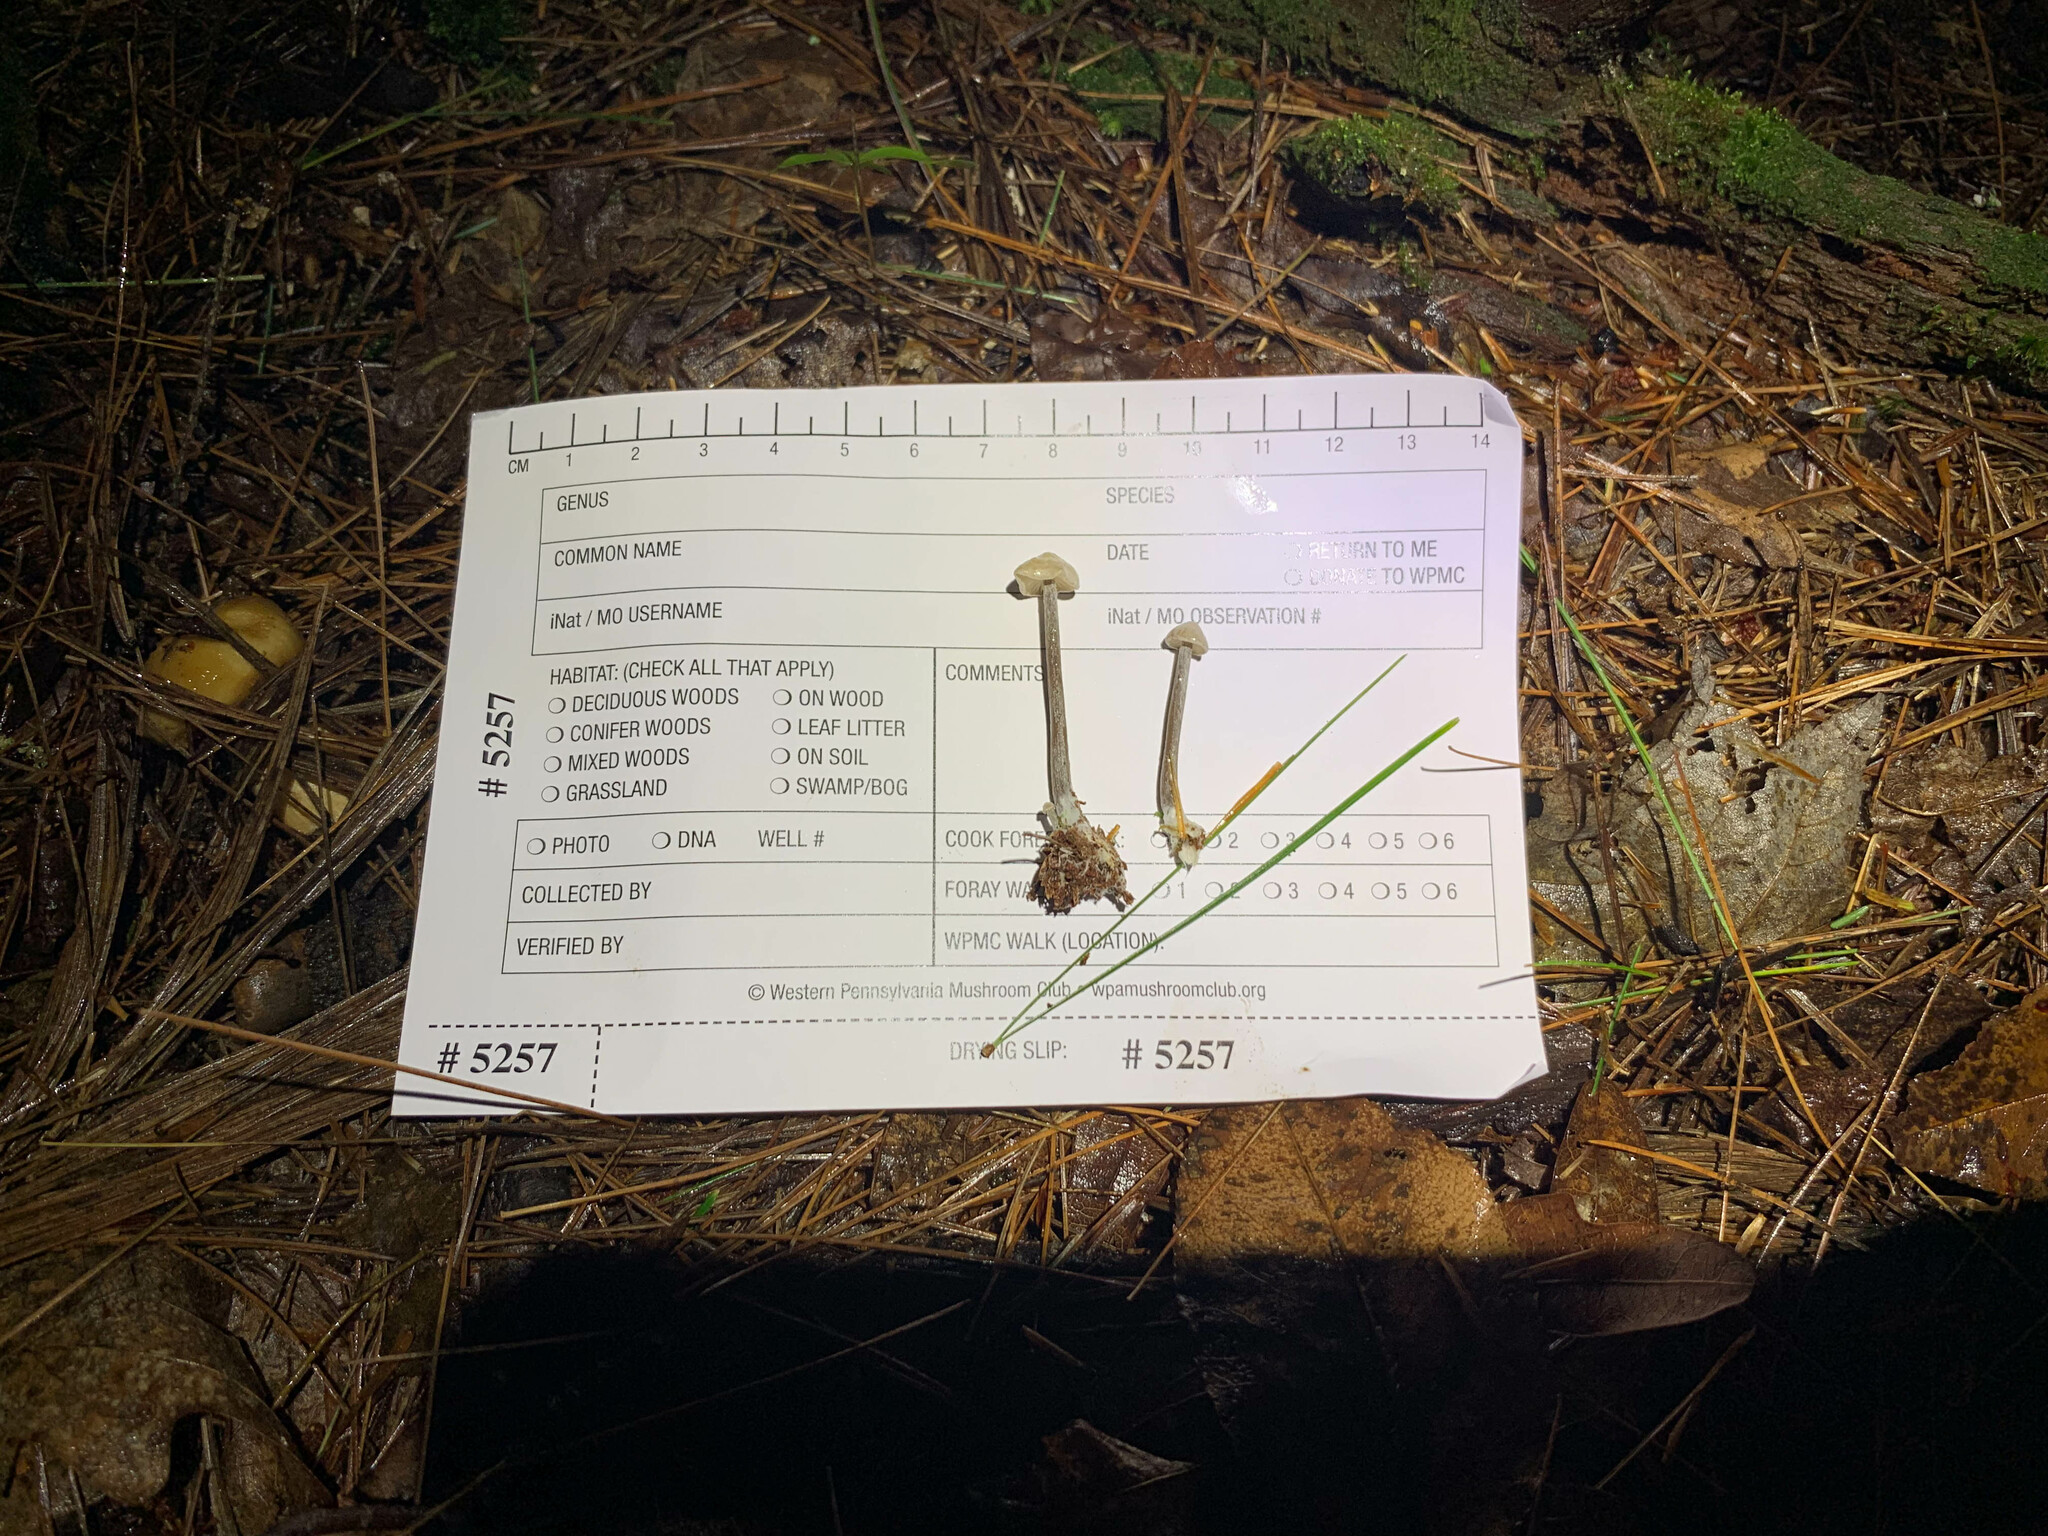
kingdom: Fungi
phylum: Basidiomycota
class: Agaricomycetes
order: Agaricales
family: Callistosporiaceae
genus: Callistosporium
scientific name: Callistosporium pseudofelleum
